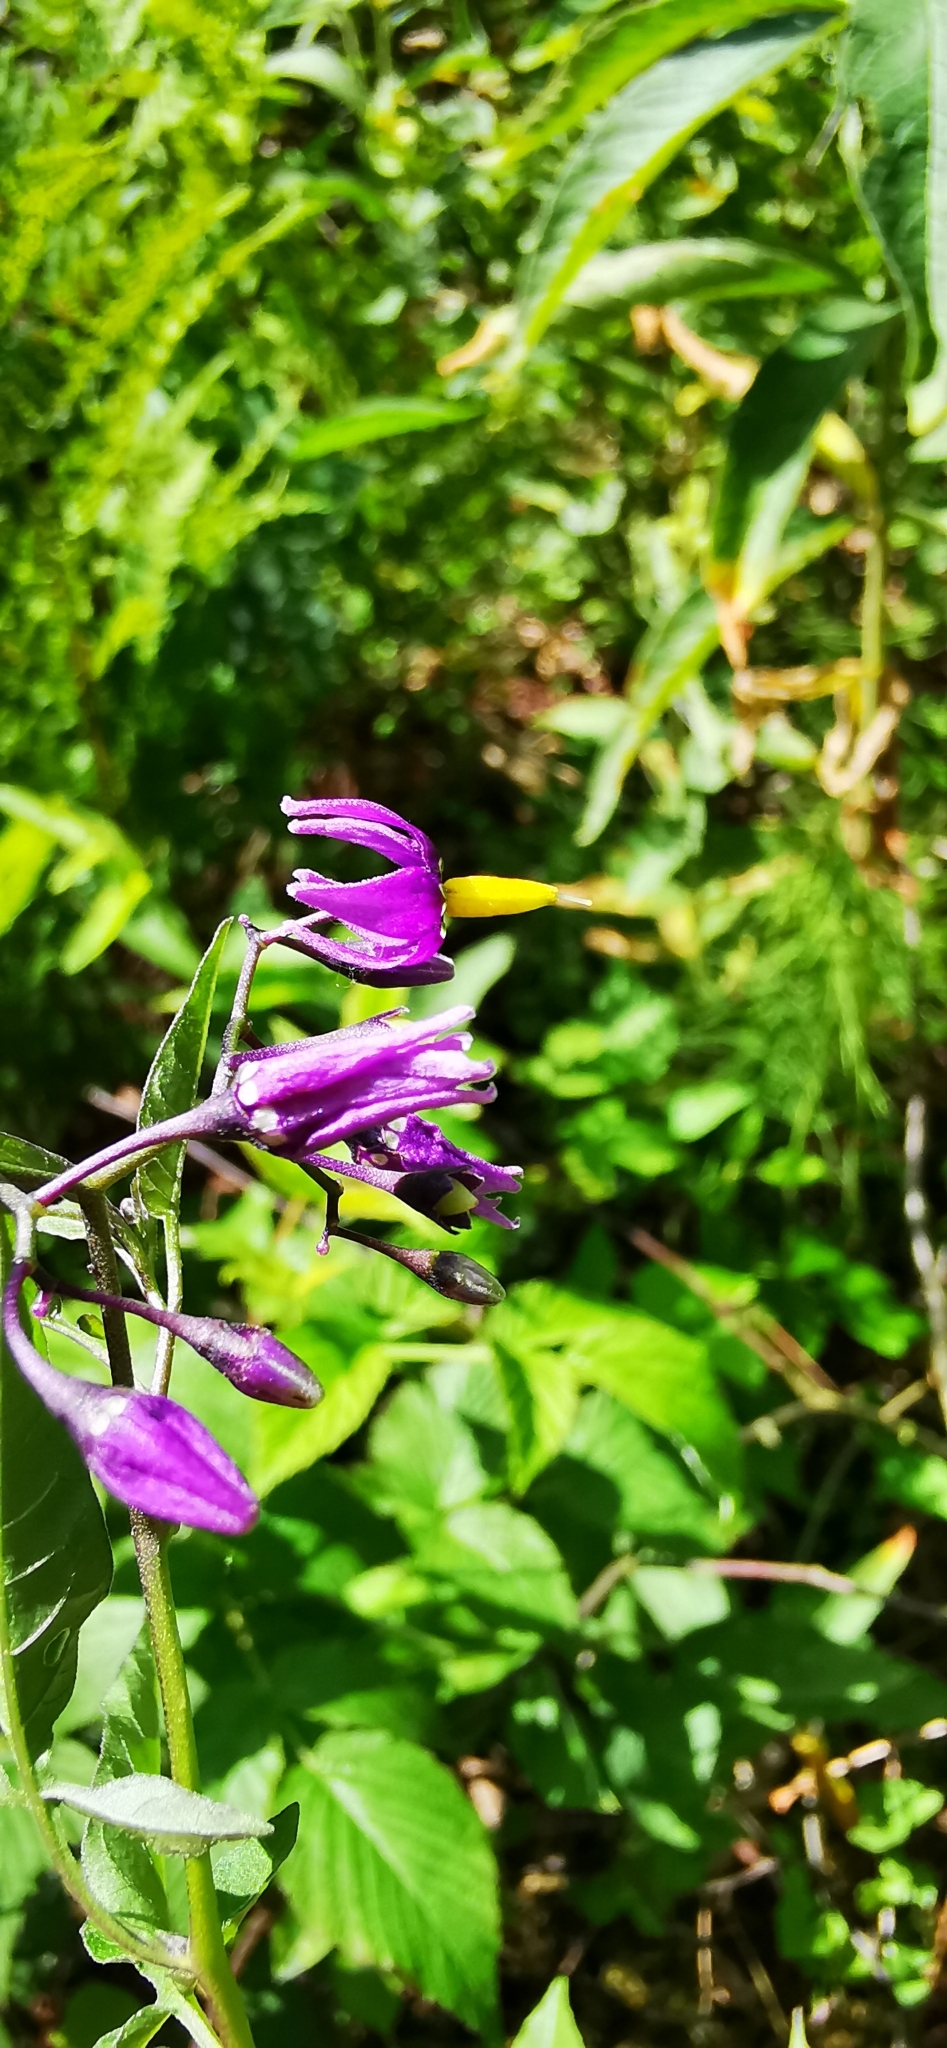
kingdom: Plantae
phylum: Tracheophyta
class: Magnoliopsida
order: Solanales
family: Solanaceae
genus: Solanum
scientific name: Solanum dulcamara
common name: Climbing nightshade
